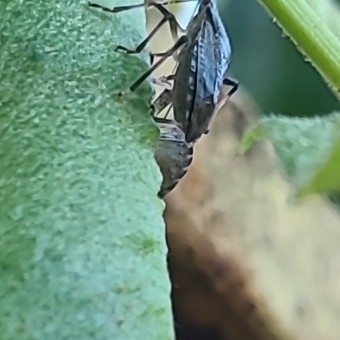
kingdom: Animalia
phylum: Arthropoda
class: Insecta
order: Hemiptera
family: Pentatomidae
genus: Halyomorpha
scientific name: Halyomorpha halys
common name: Brown marmorated stink bug
